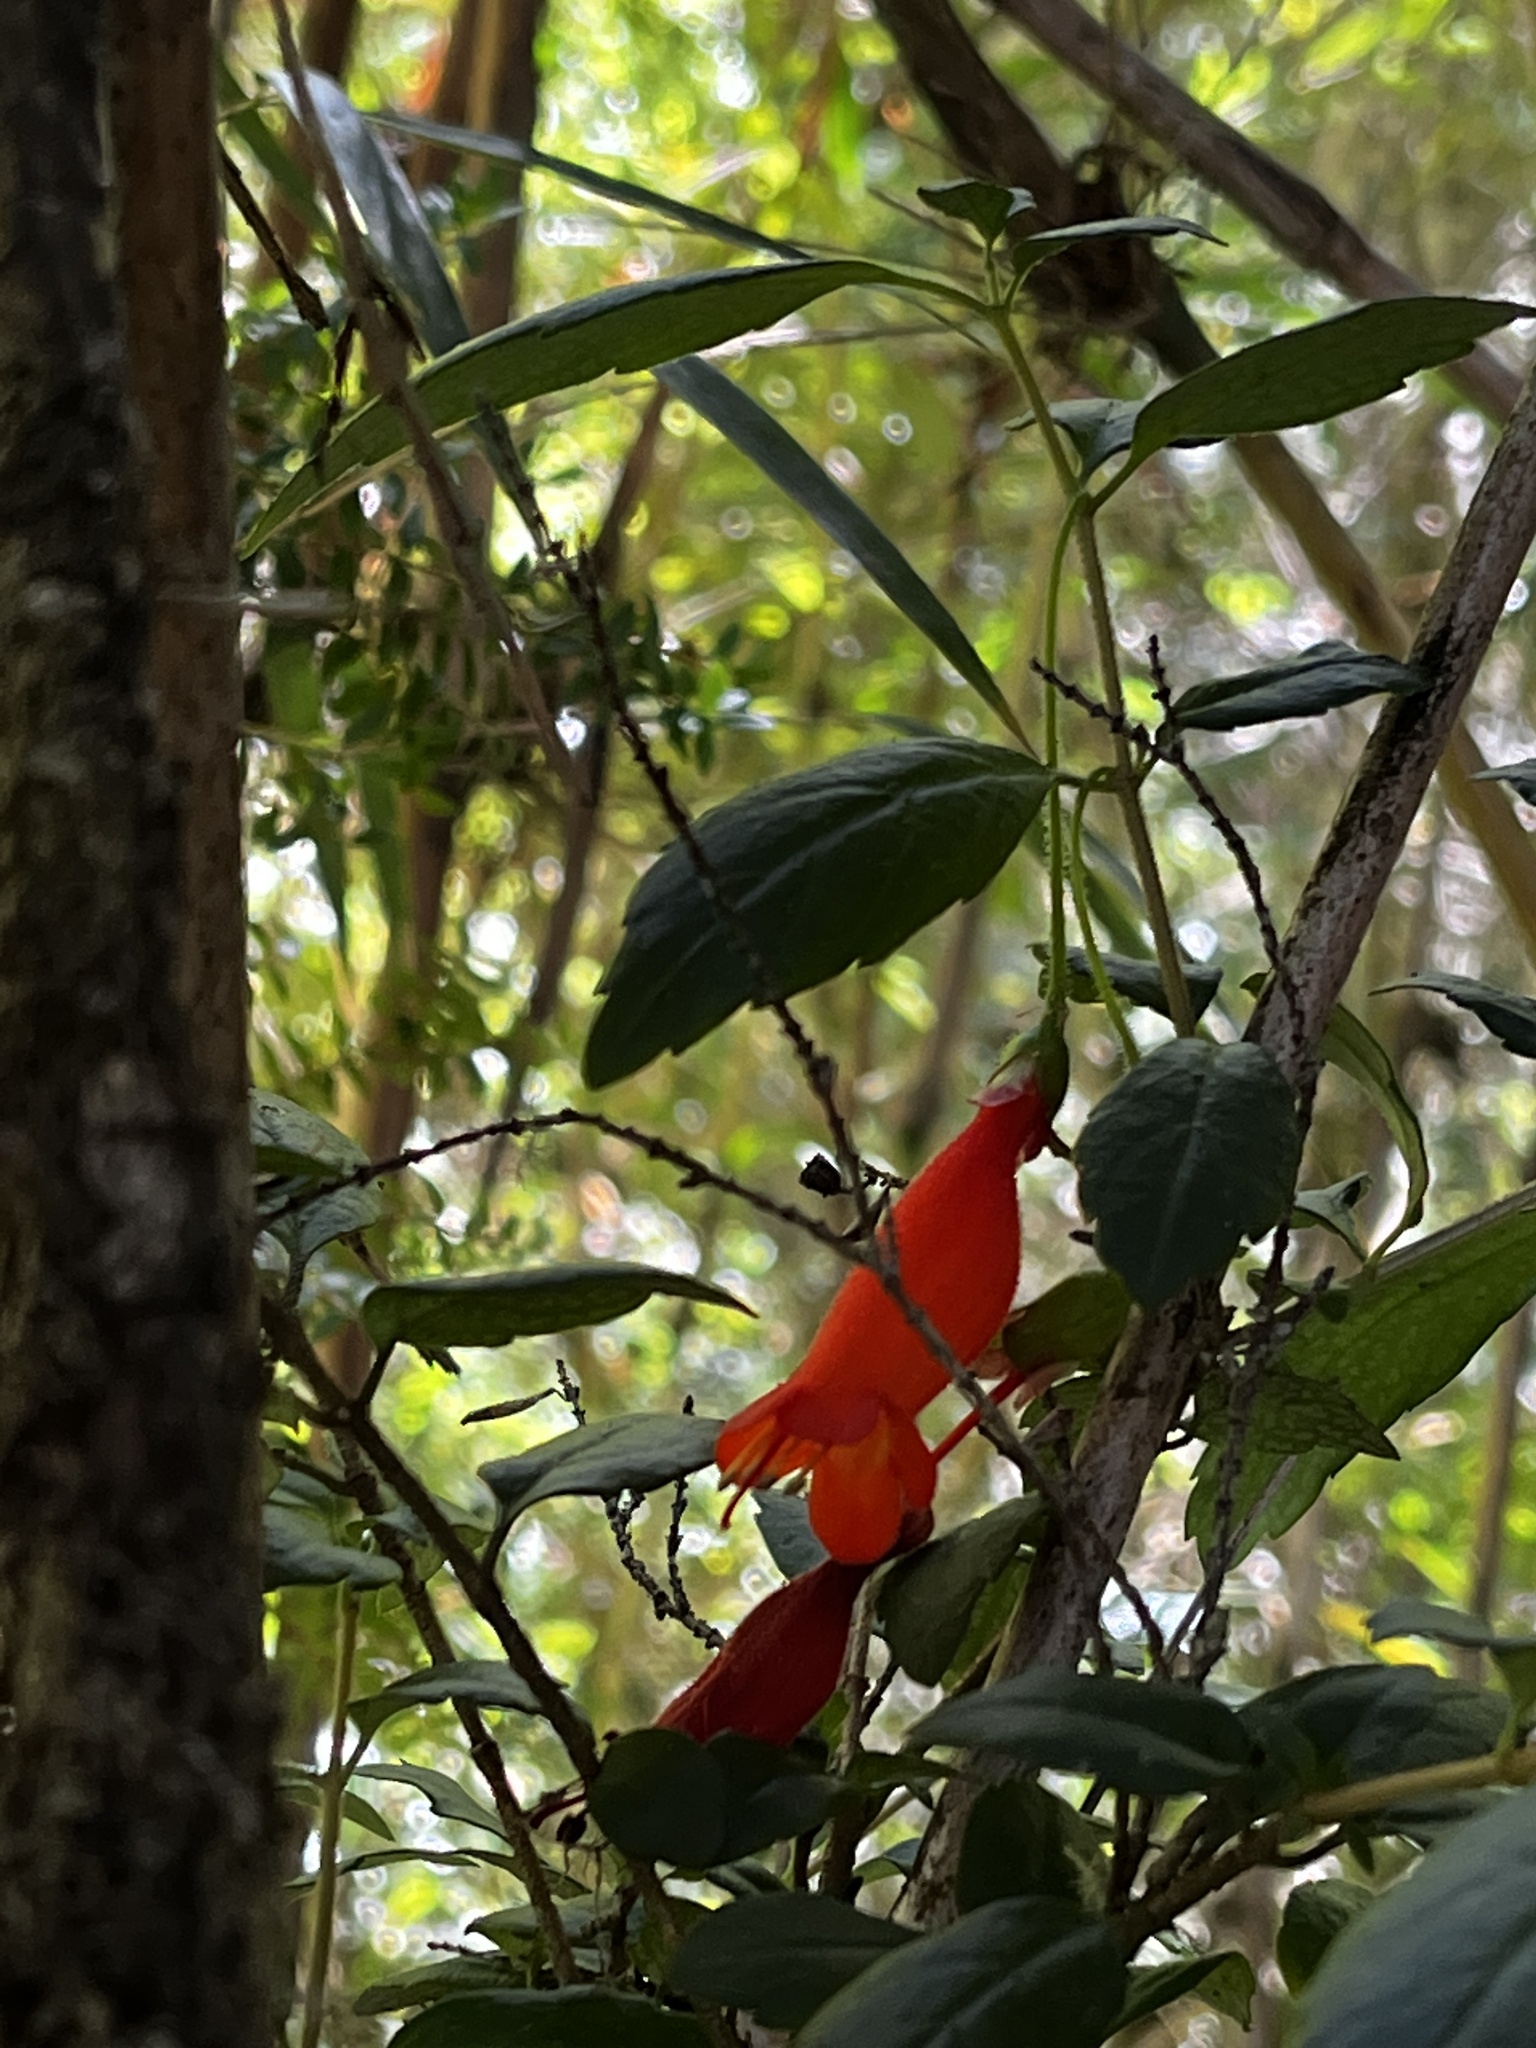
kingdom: Plantae
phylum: Tracheophyta
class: Magnoliopsida
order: Lamiales
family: Gesneriaceae
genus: Mitraria
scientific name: Mitraria coccinea
